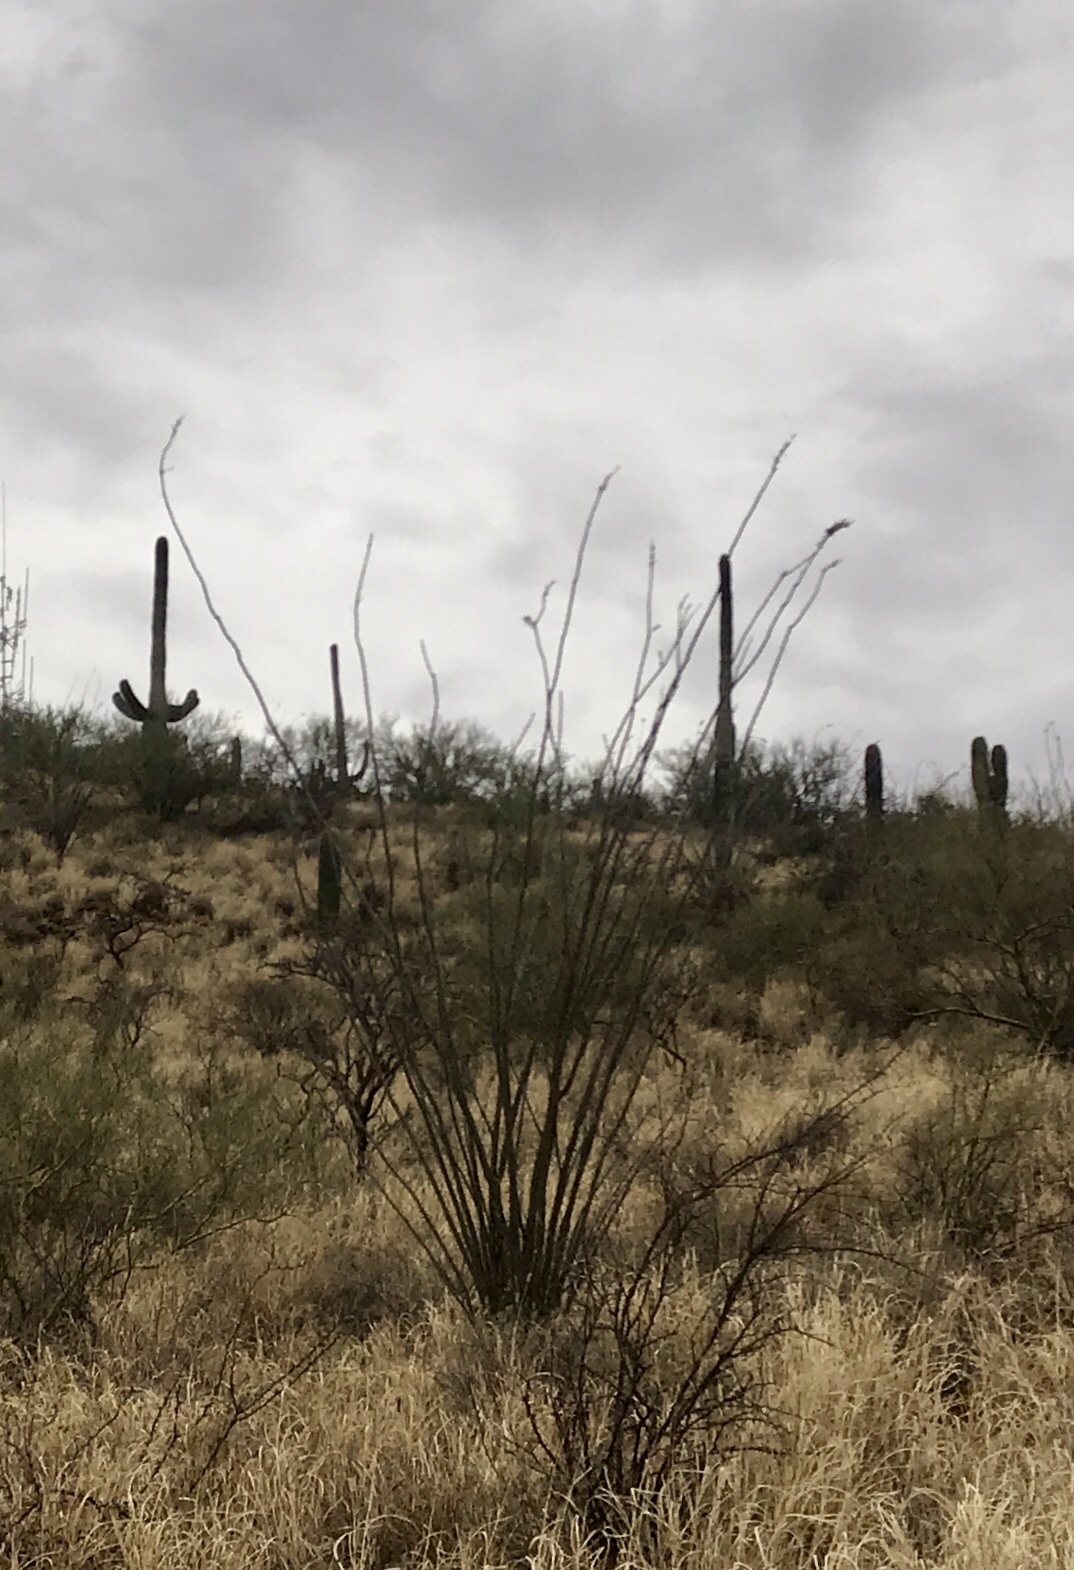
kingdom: Plantae
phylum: Tracheophyta
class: Magnoliopsida
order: Ericales
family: Fouquieriaceae
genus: Fouquieria
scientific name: Fouquieria splendens
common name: Vine-cactus
